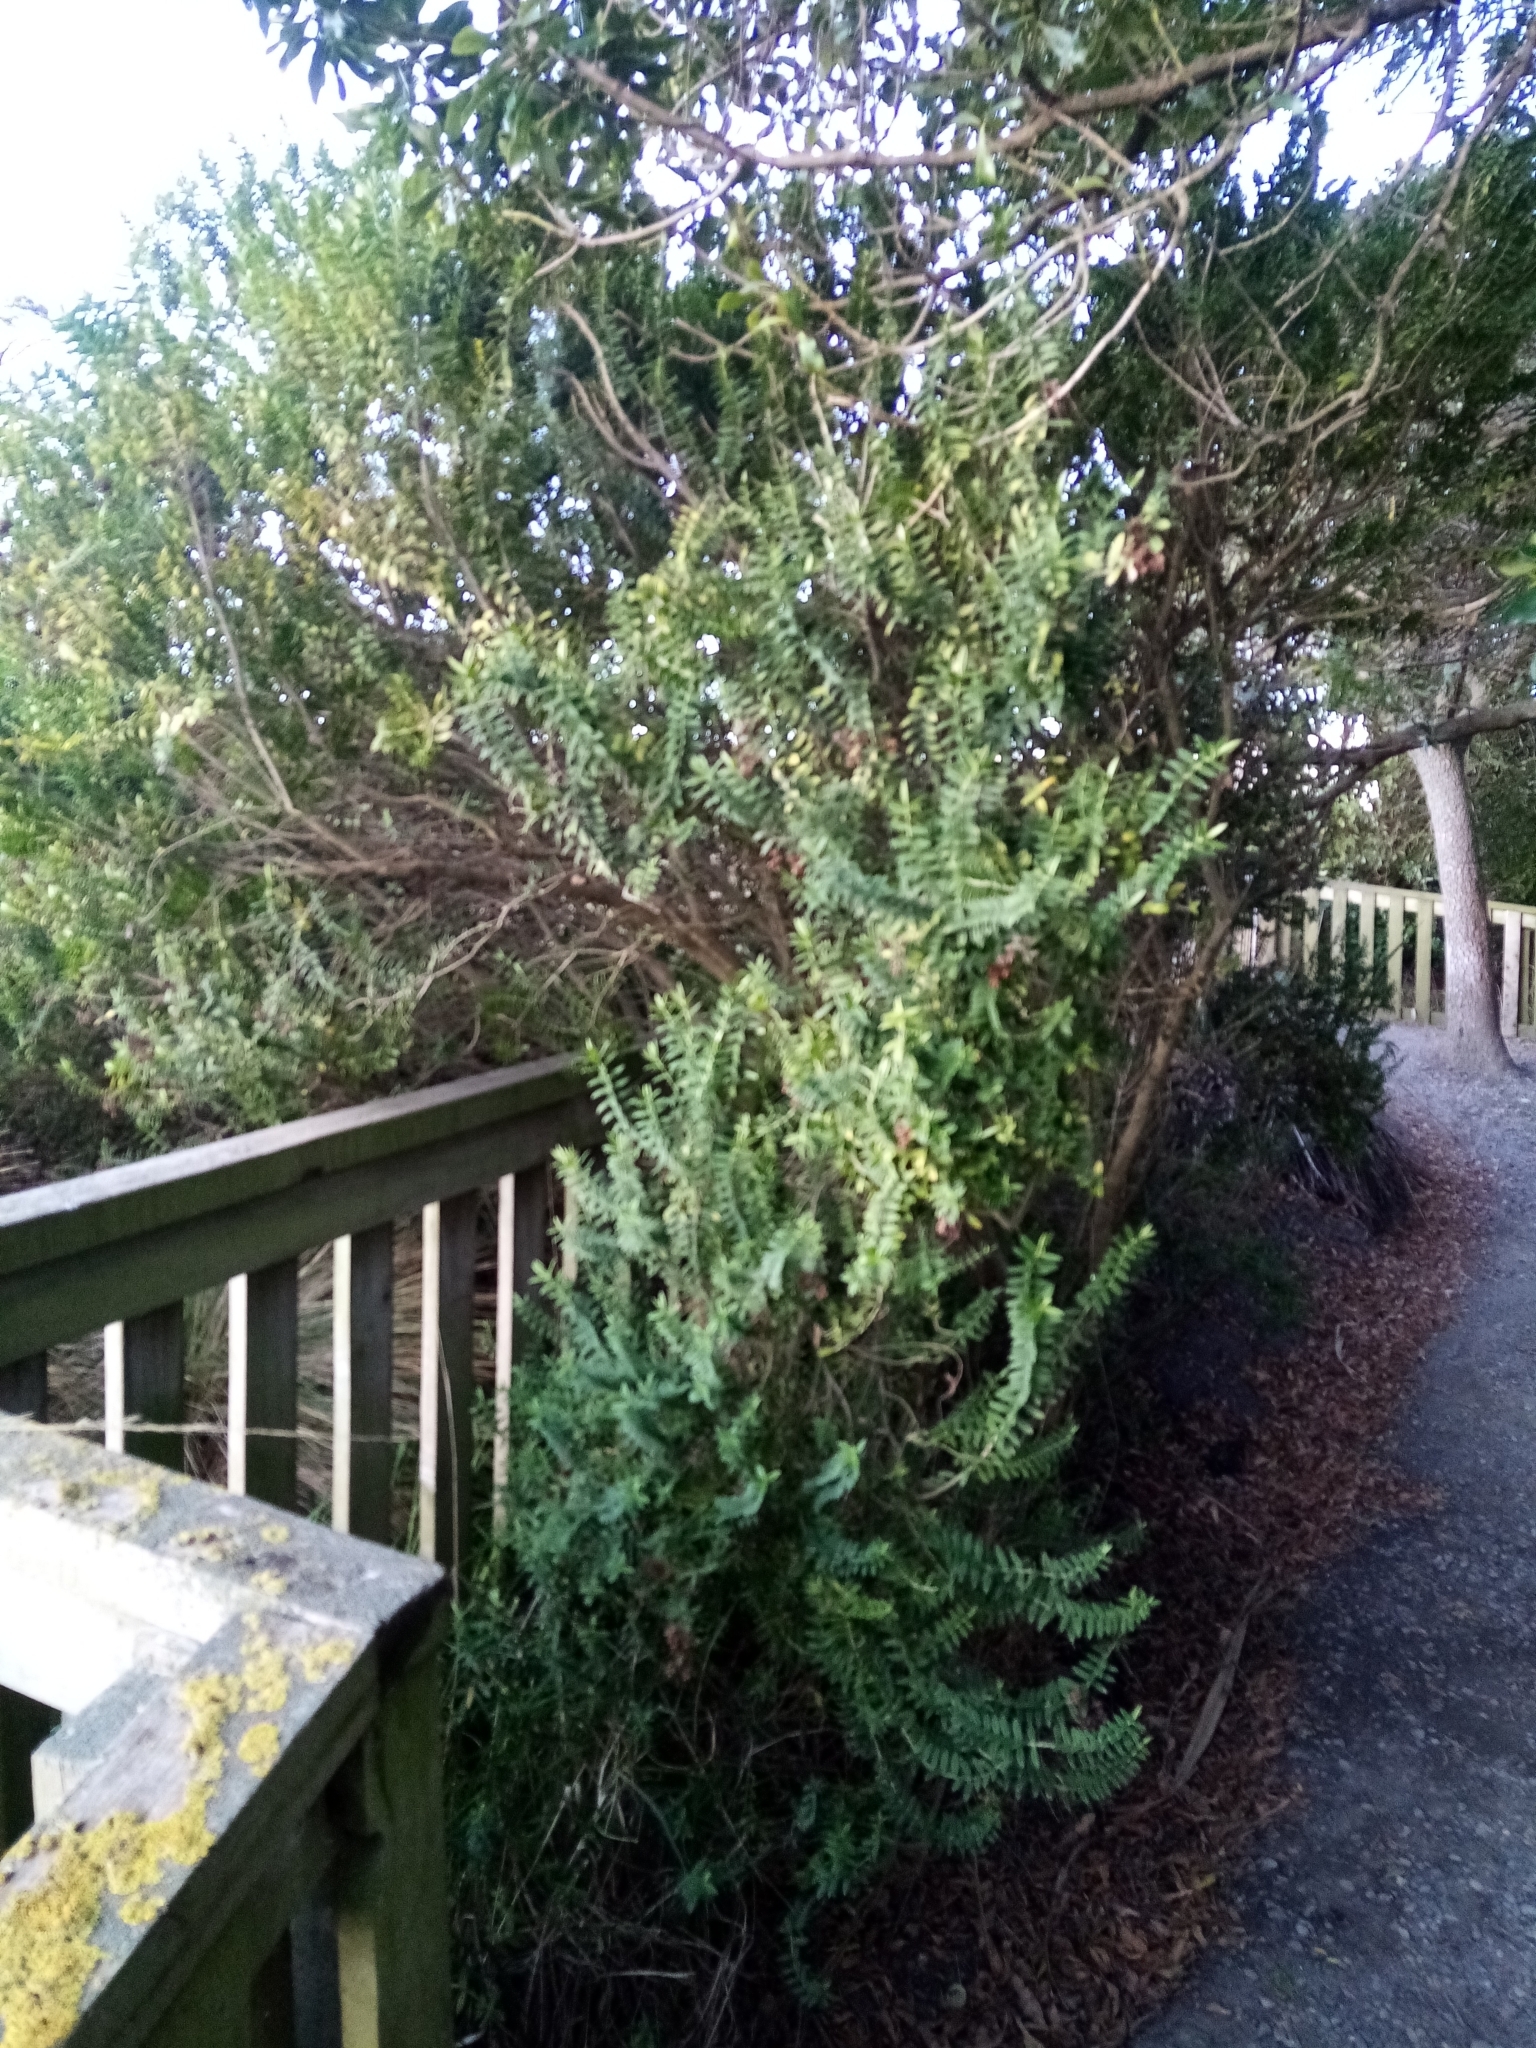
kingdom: Plantae
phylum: Tracheophyta
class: Magnoliopsida
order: Lamiales
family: Plantaginaceae
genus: Veronica
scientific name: Veronica elliptica
